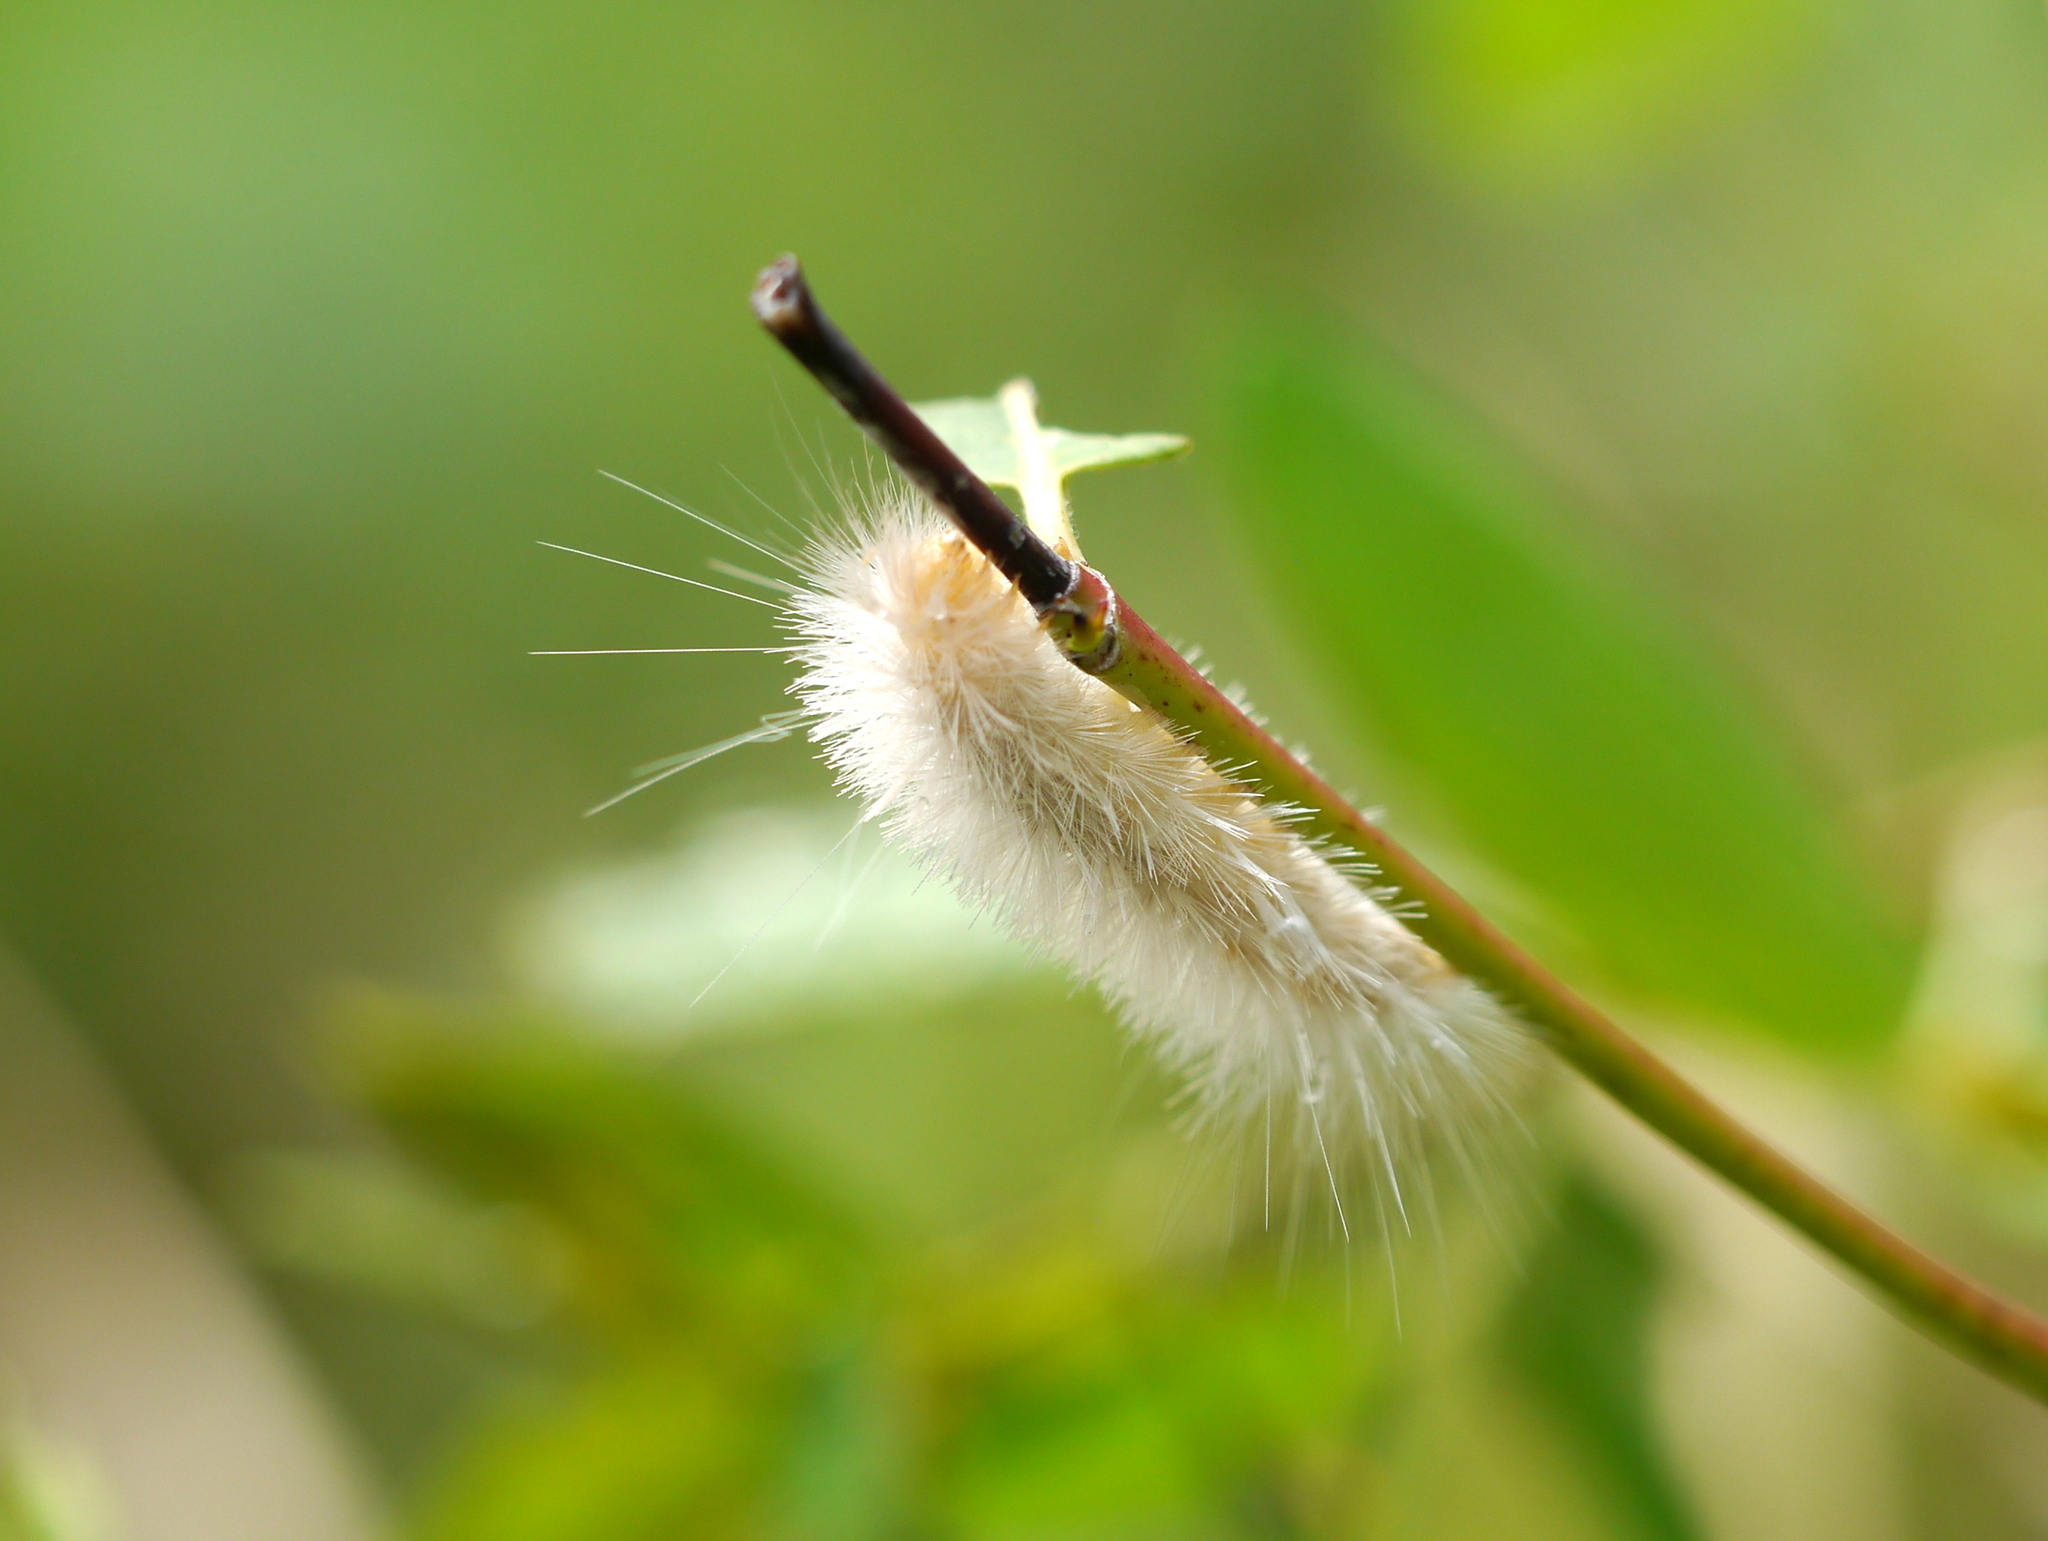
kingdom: Animalia
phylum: Arthropoda
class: Insecta
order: Lepidoptera
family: Erebidae
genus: Cycnia
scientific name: Cycnia tenera
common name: Delicate cycnia moth
